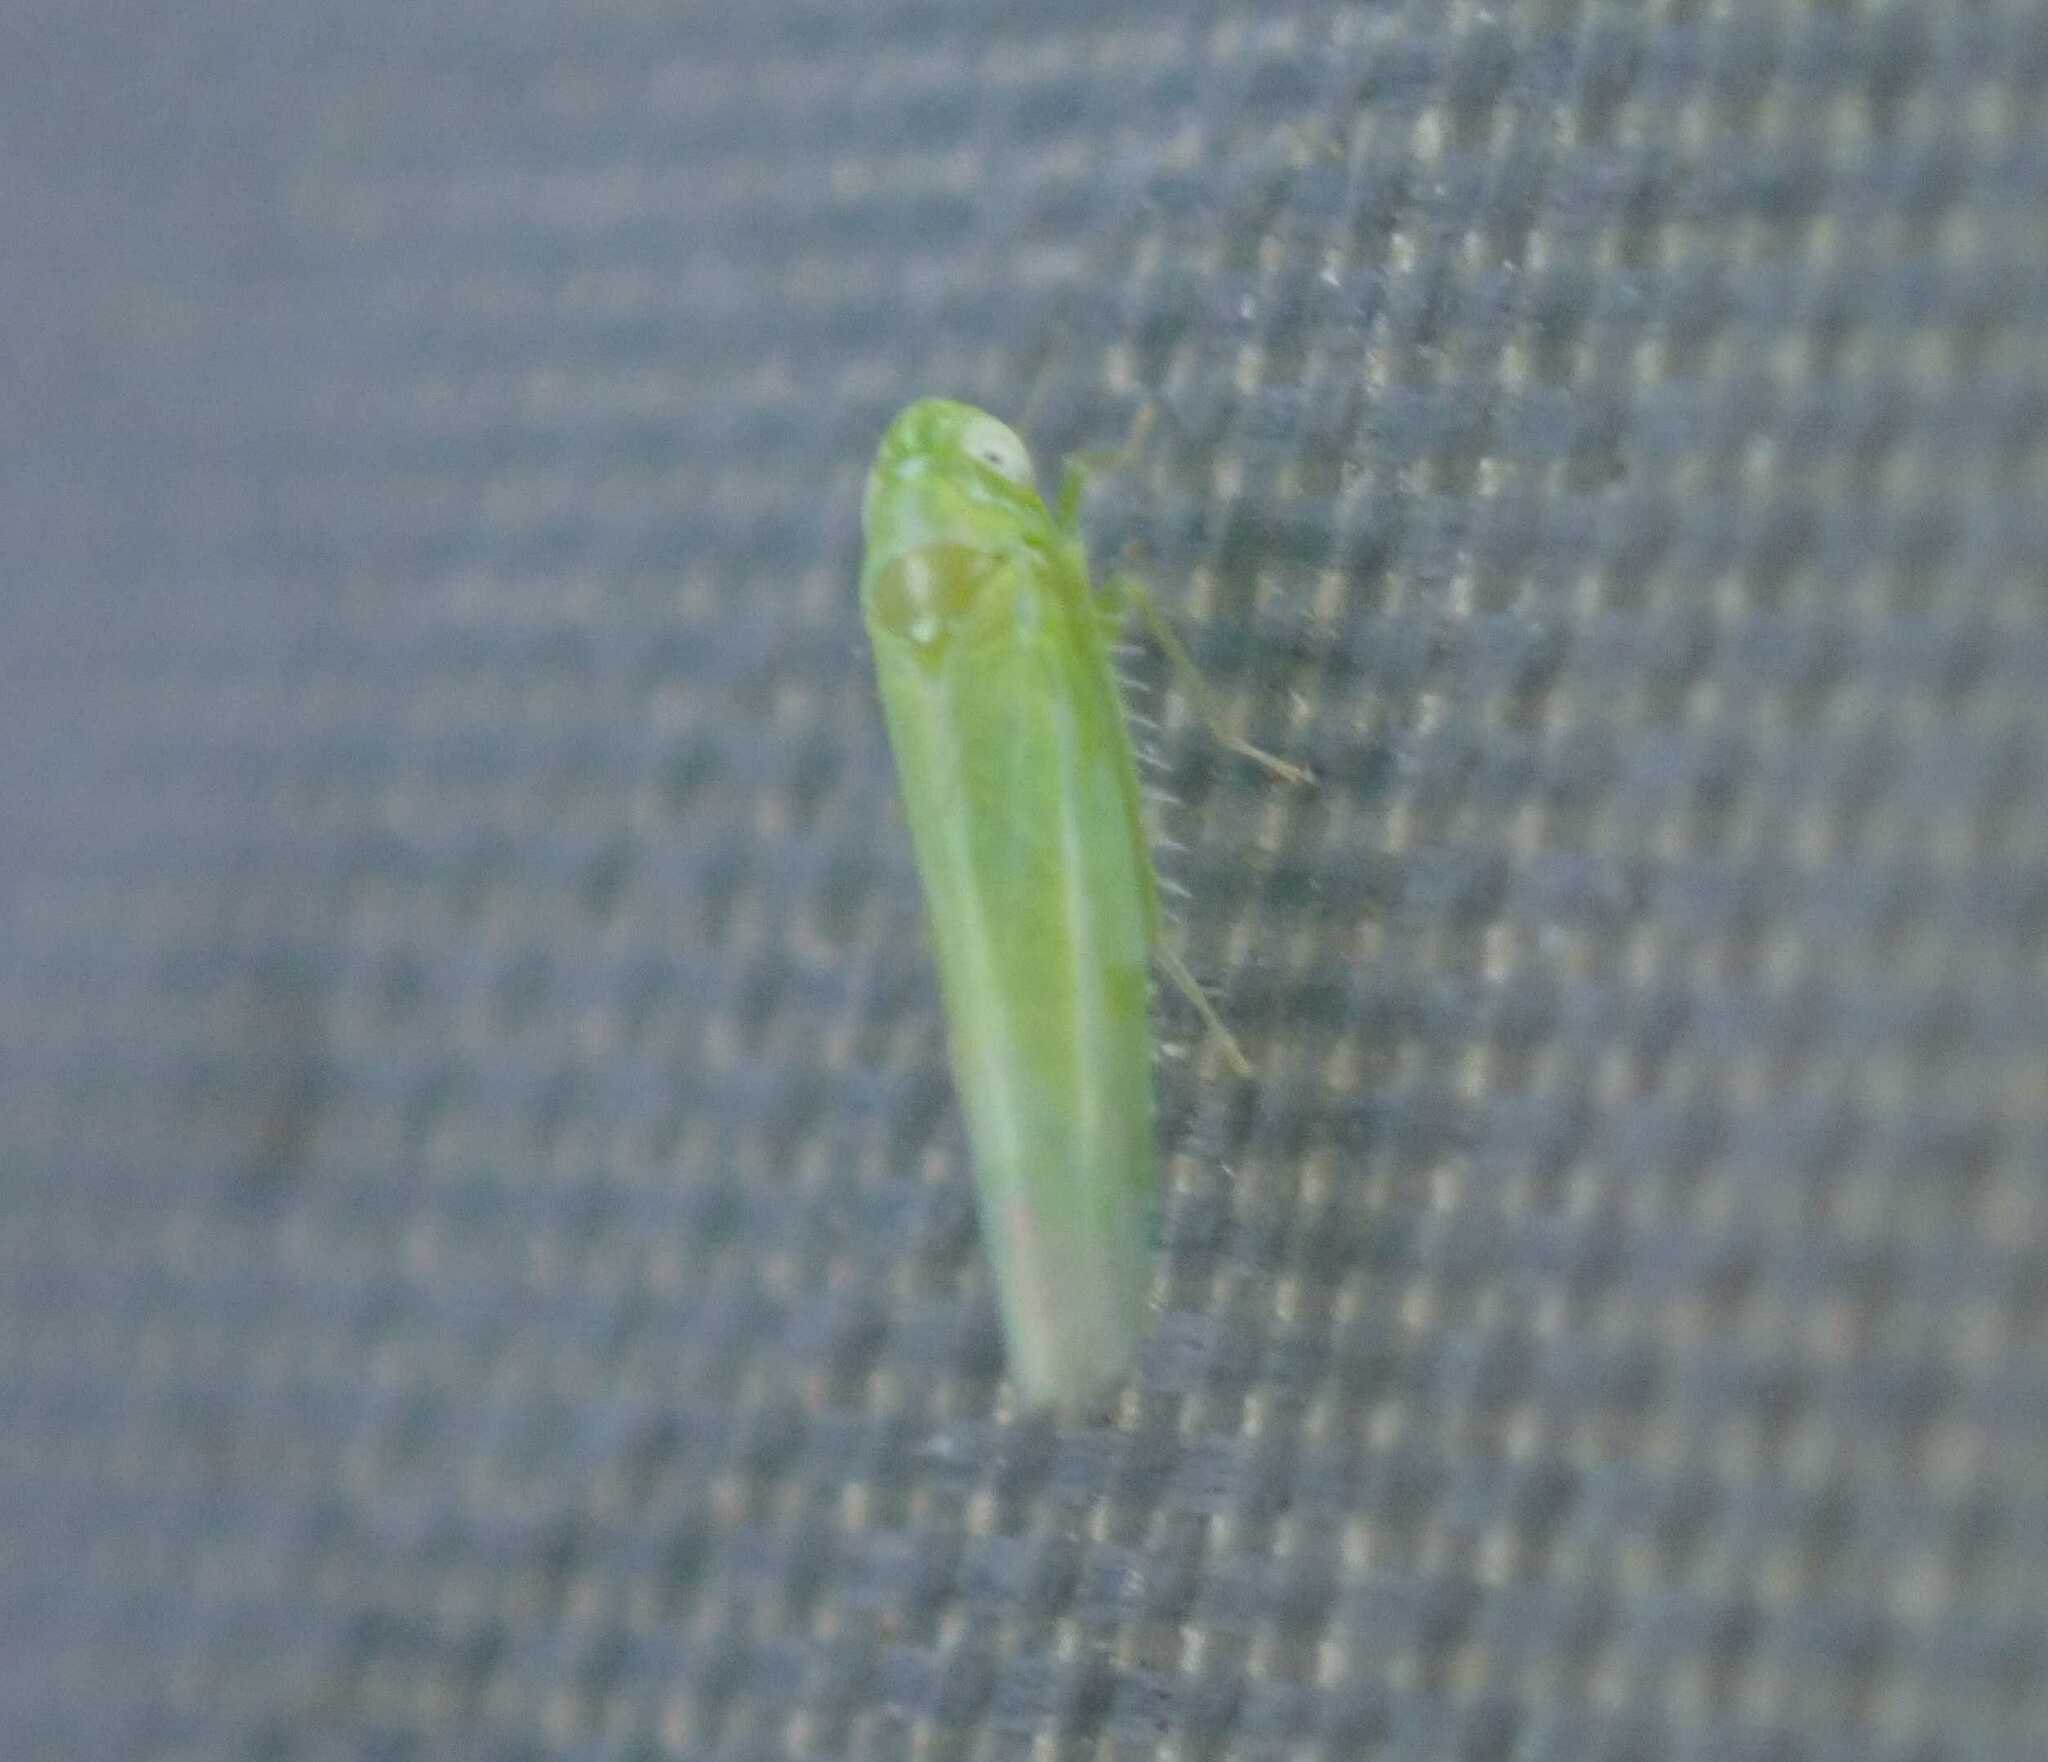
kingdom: Animalia
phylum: Arthropoda
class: Insecta
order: Hemiptera
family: Cicadellidae
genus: Hebata
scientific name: Hebata vitis
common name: The smaller green leafhopper
